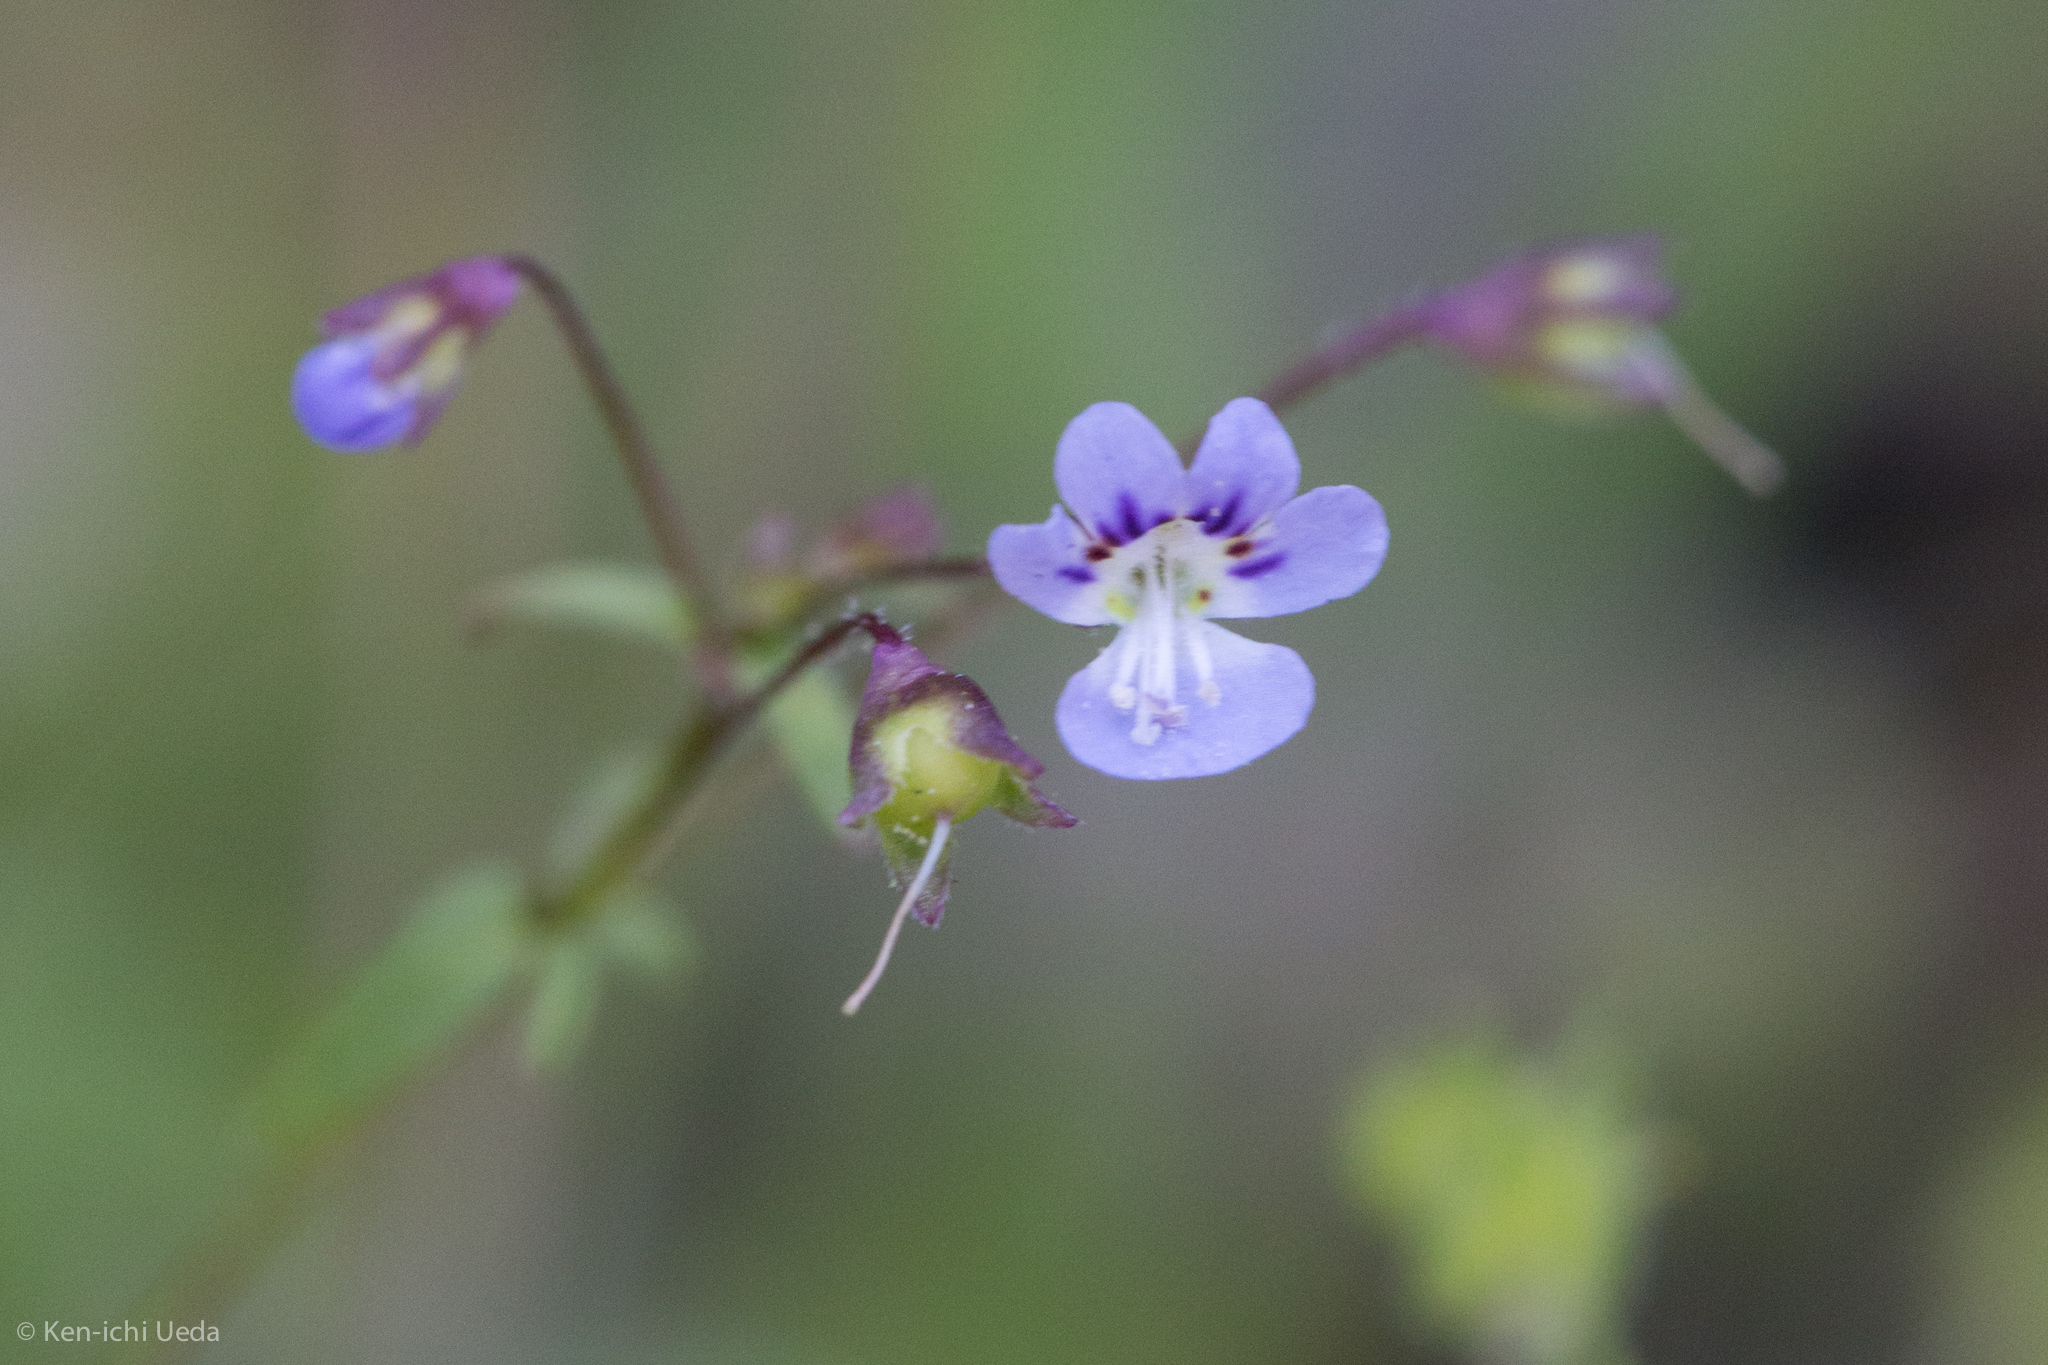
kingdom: Plantae
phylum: Tracheophyta
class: Magnoliopsida
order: Lamiales
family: Plantaginaceae
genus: Tonella
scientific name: Tonella tenella
